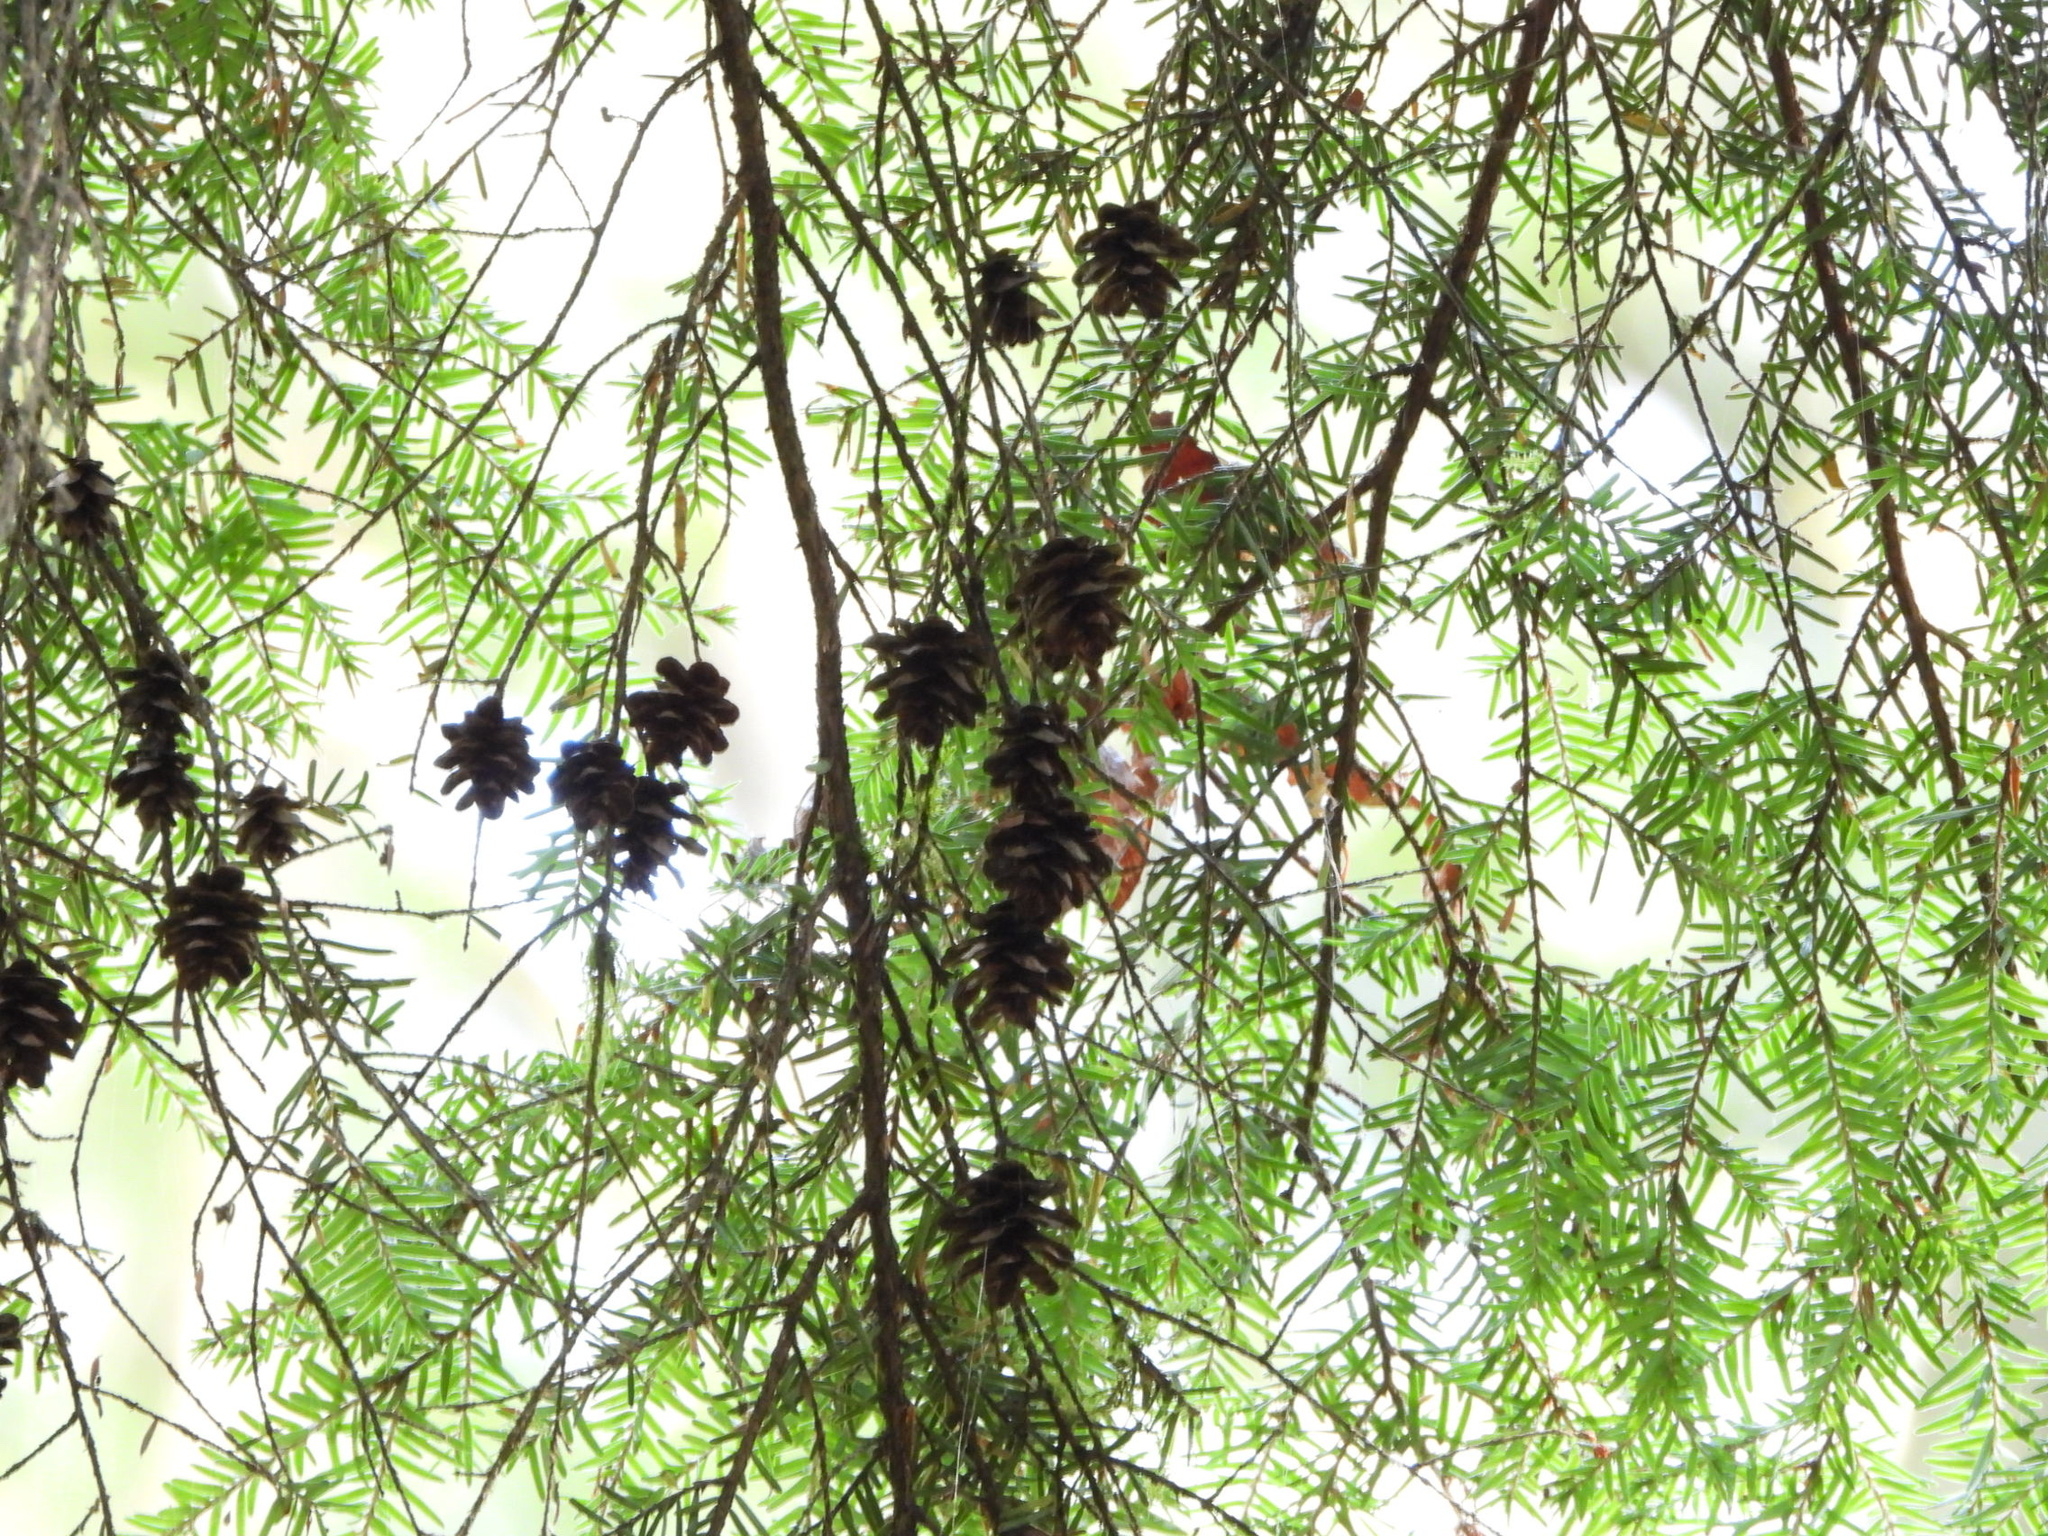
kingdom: Plantae
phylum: Tracheophyta
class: Pinopsida
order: Pinales
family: Pinaceae
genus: Tsuga
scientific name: Tsuga heterophylla
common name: Western hemlock
